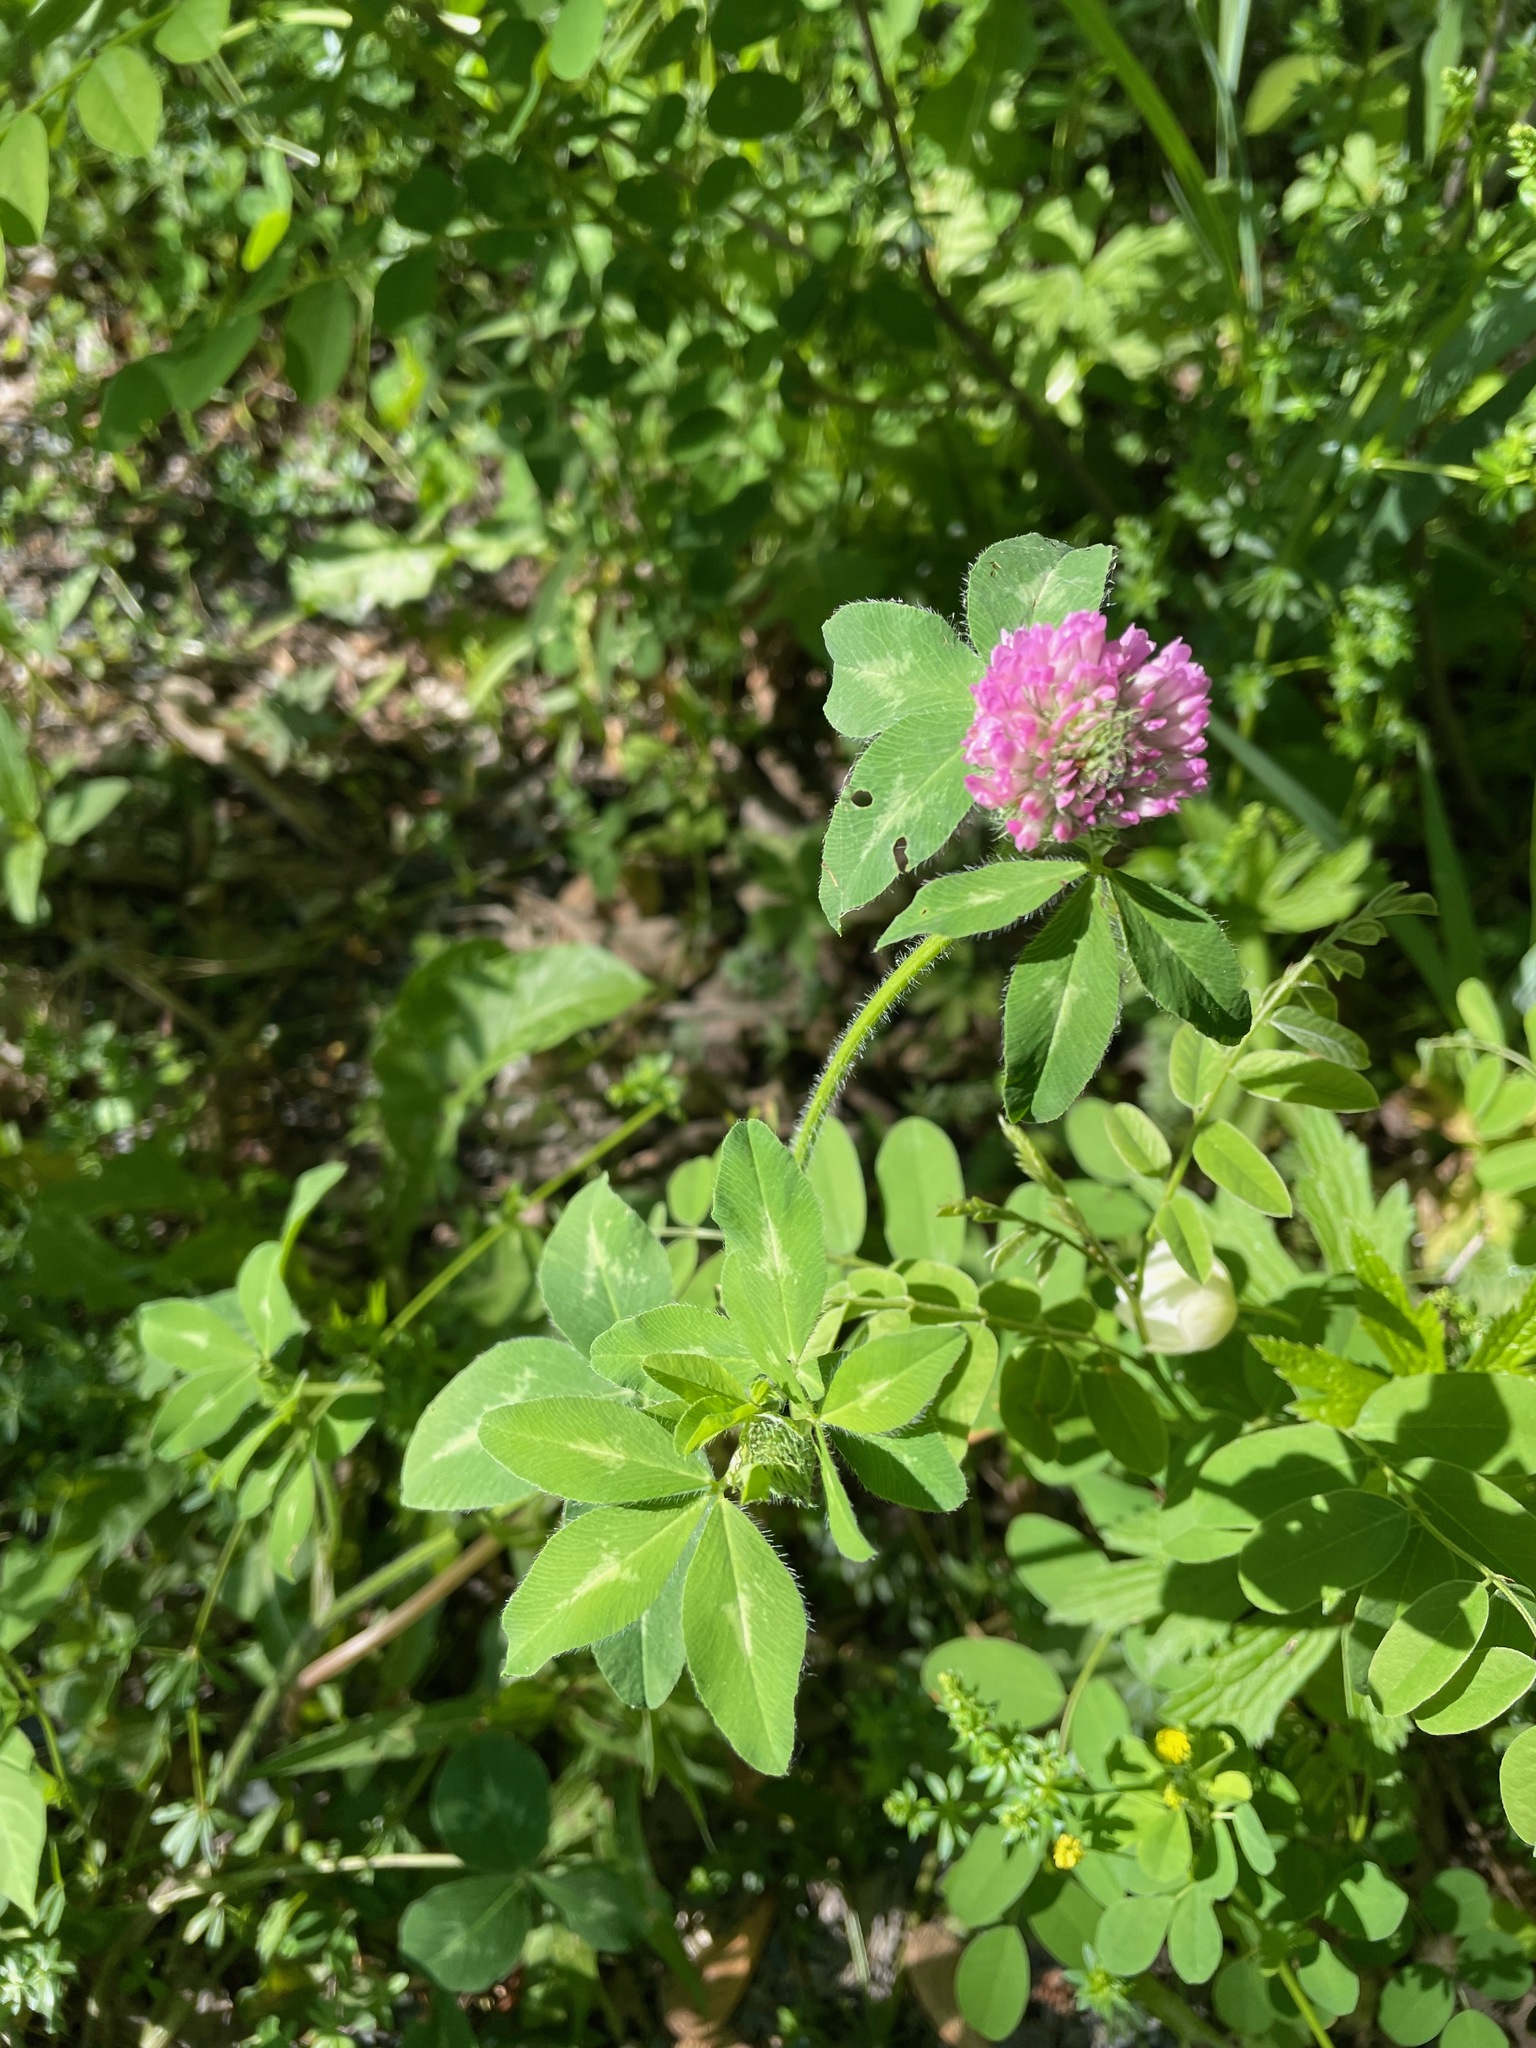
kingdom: Plantae
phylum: Tracheophyta
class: Magnoliopsida
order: Fabales
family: Fabaceae
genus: Trifolium
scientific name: Trifolium pratense
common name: Red clover
